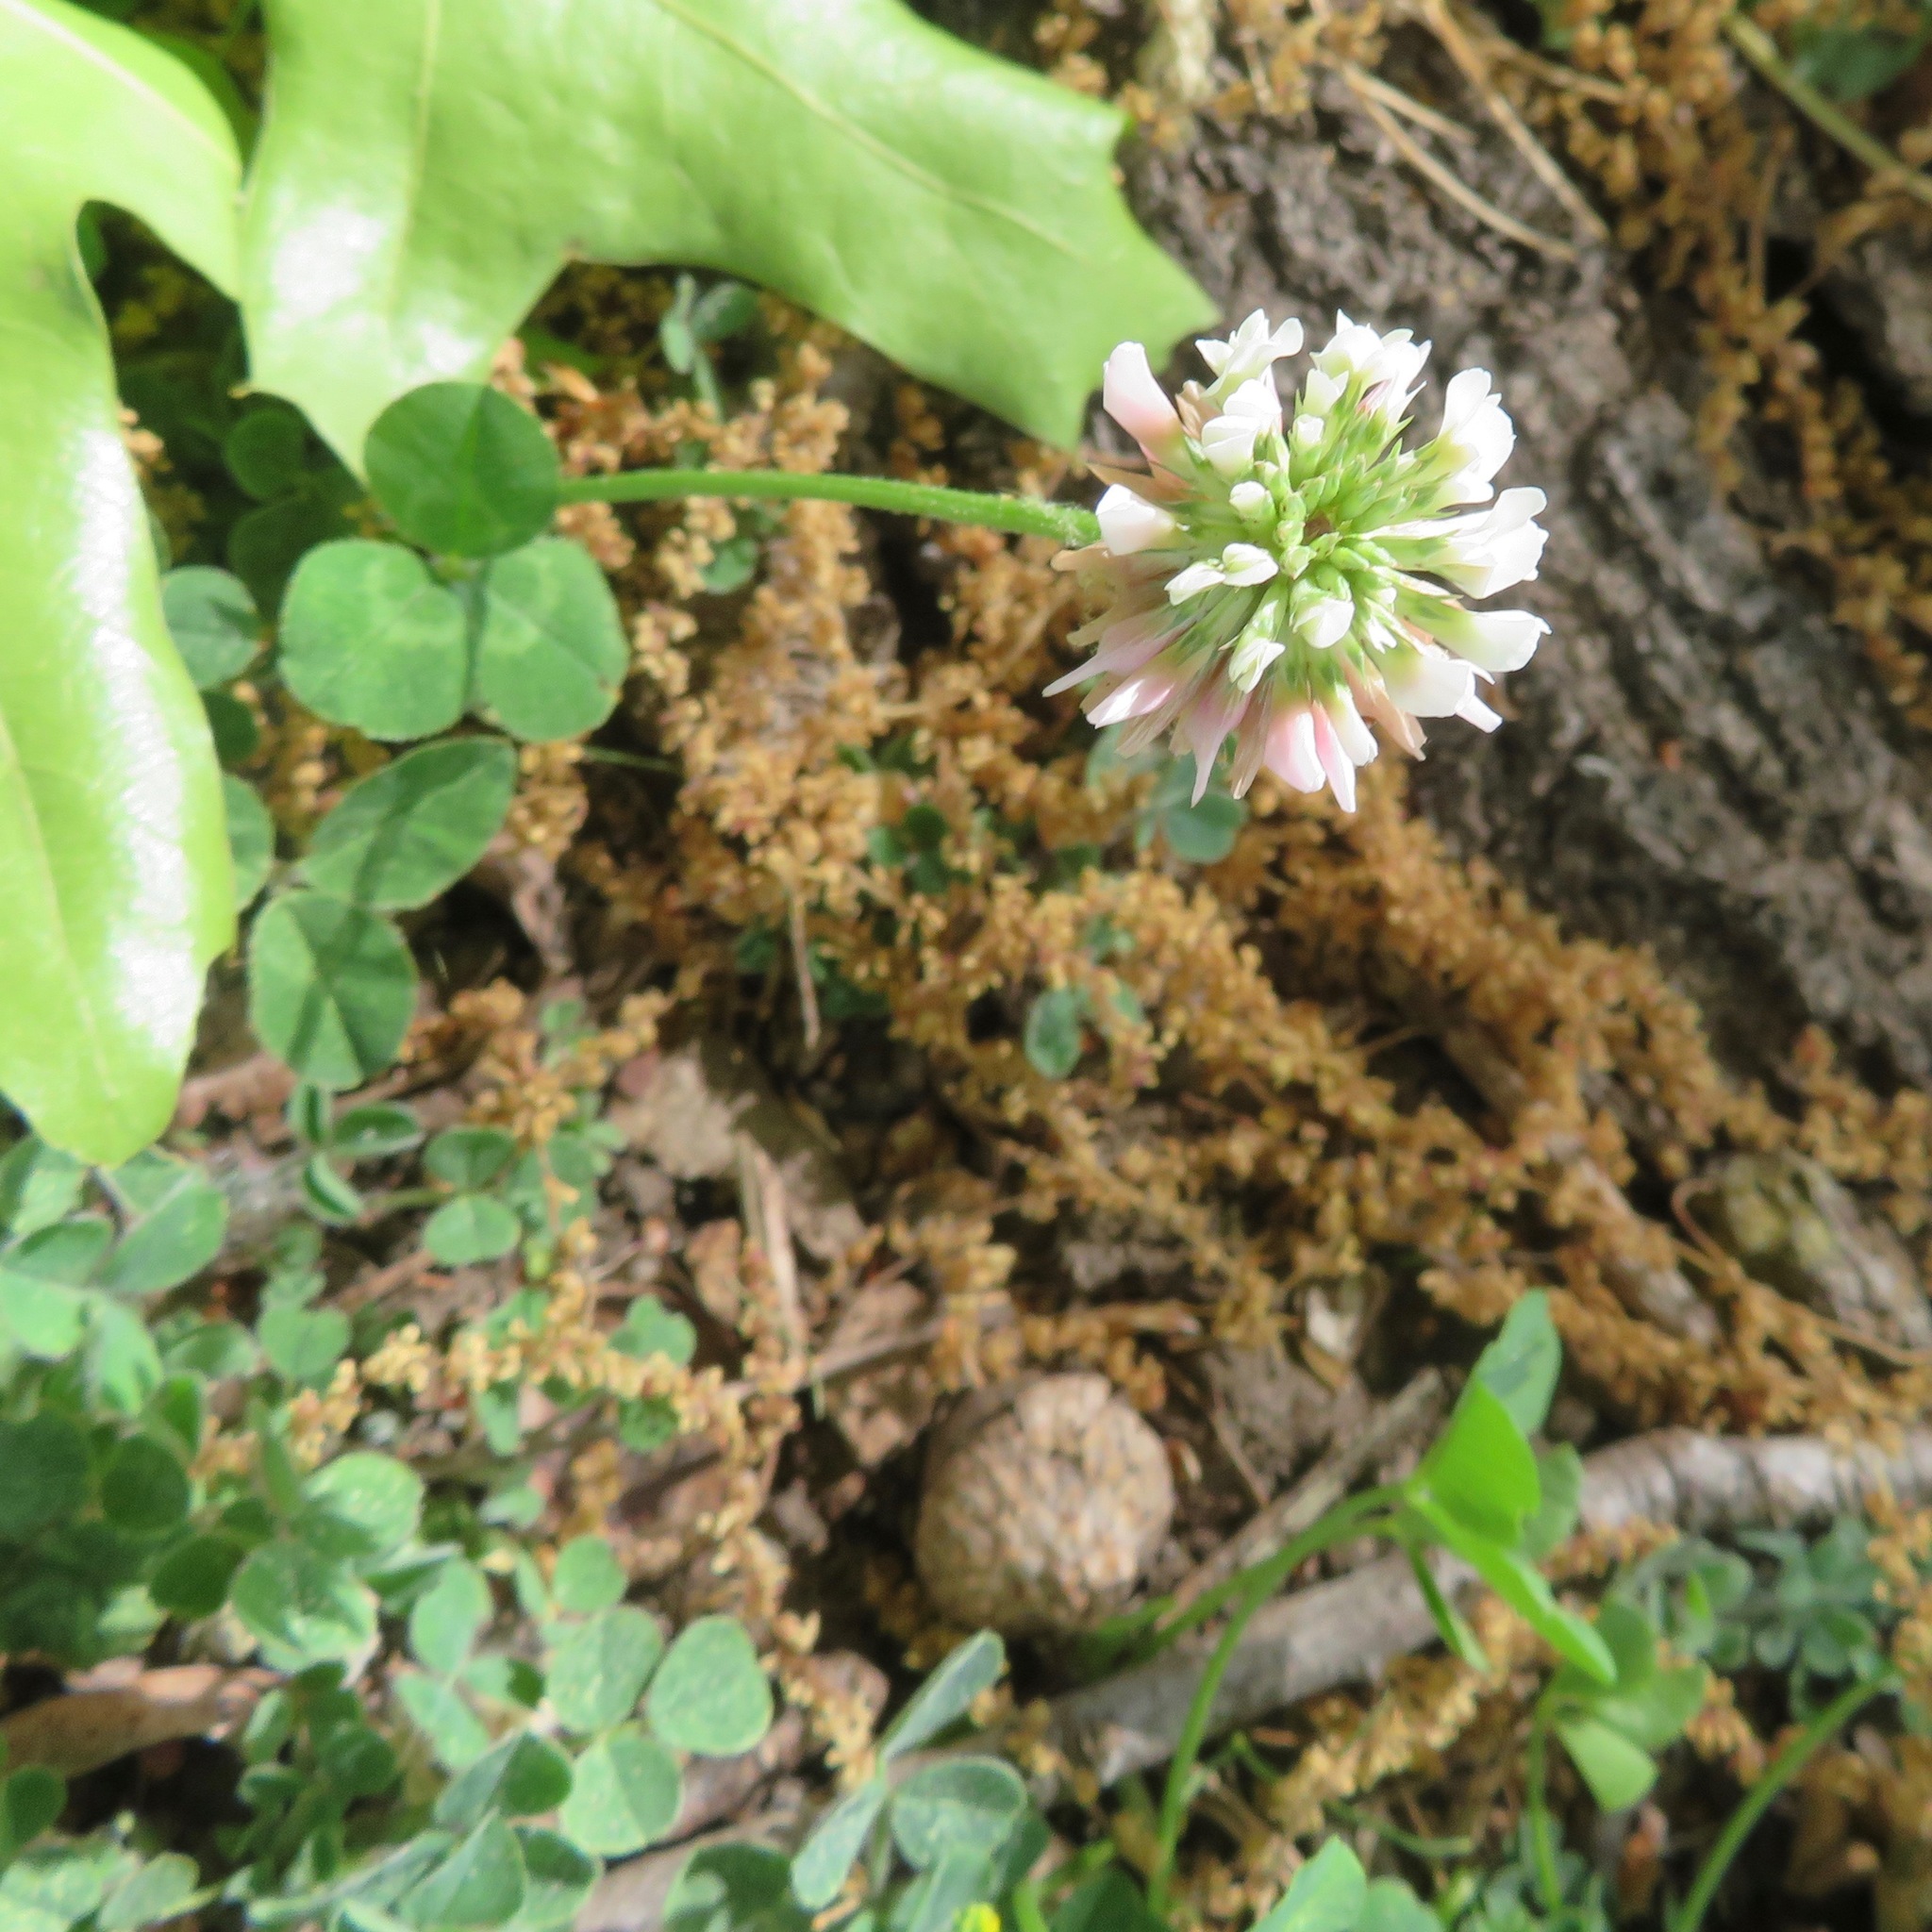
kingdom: Plantae
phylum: Tracheophyta
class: Magnoliopsida
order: Fabales
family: Fabaceae
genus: Trifolium
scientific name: Trifolium repens
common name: White clover
